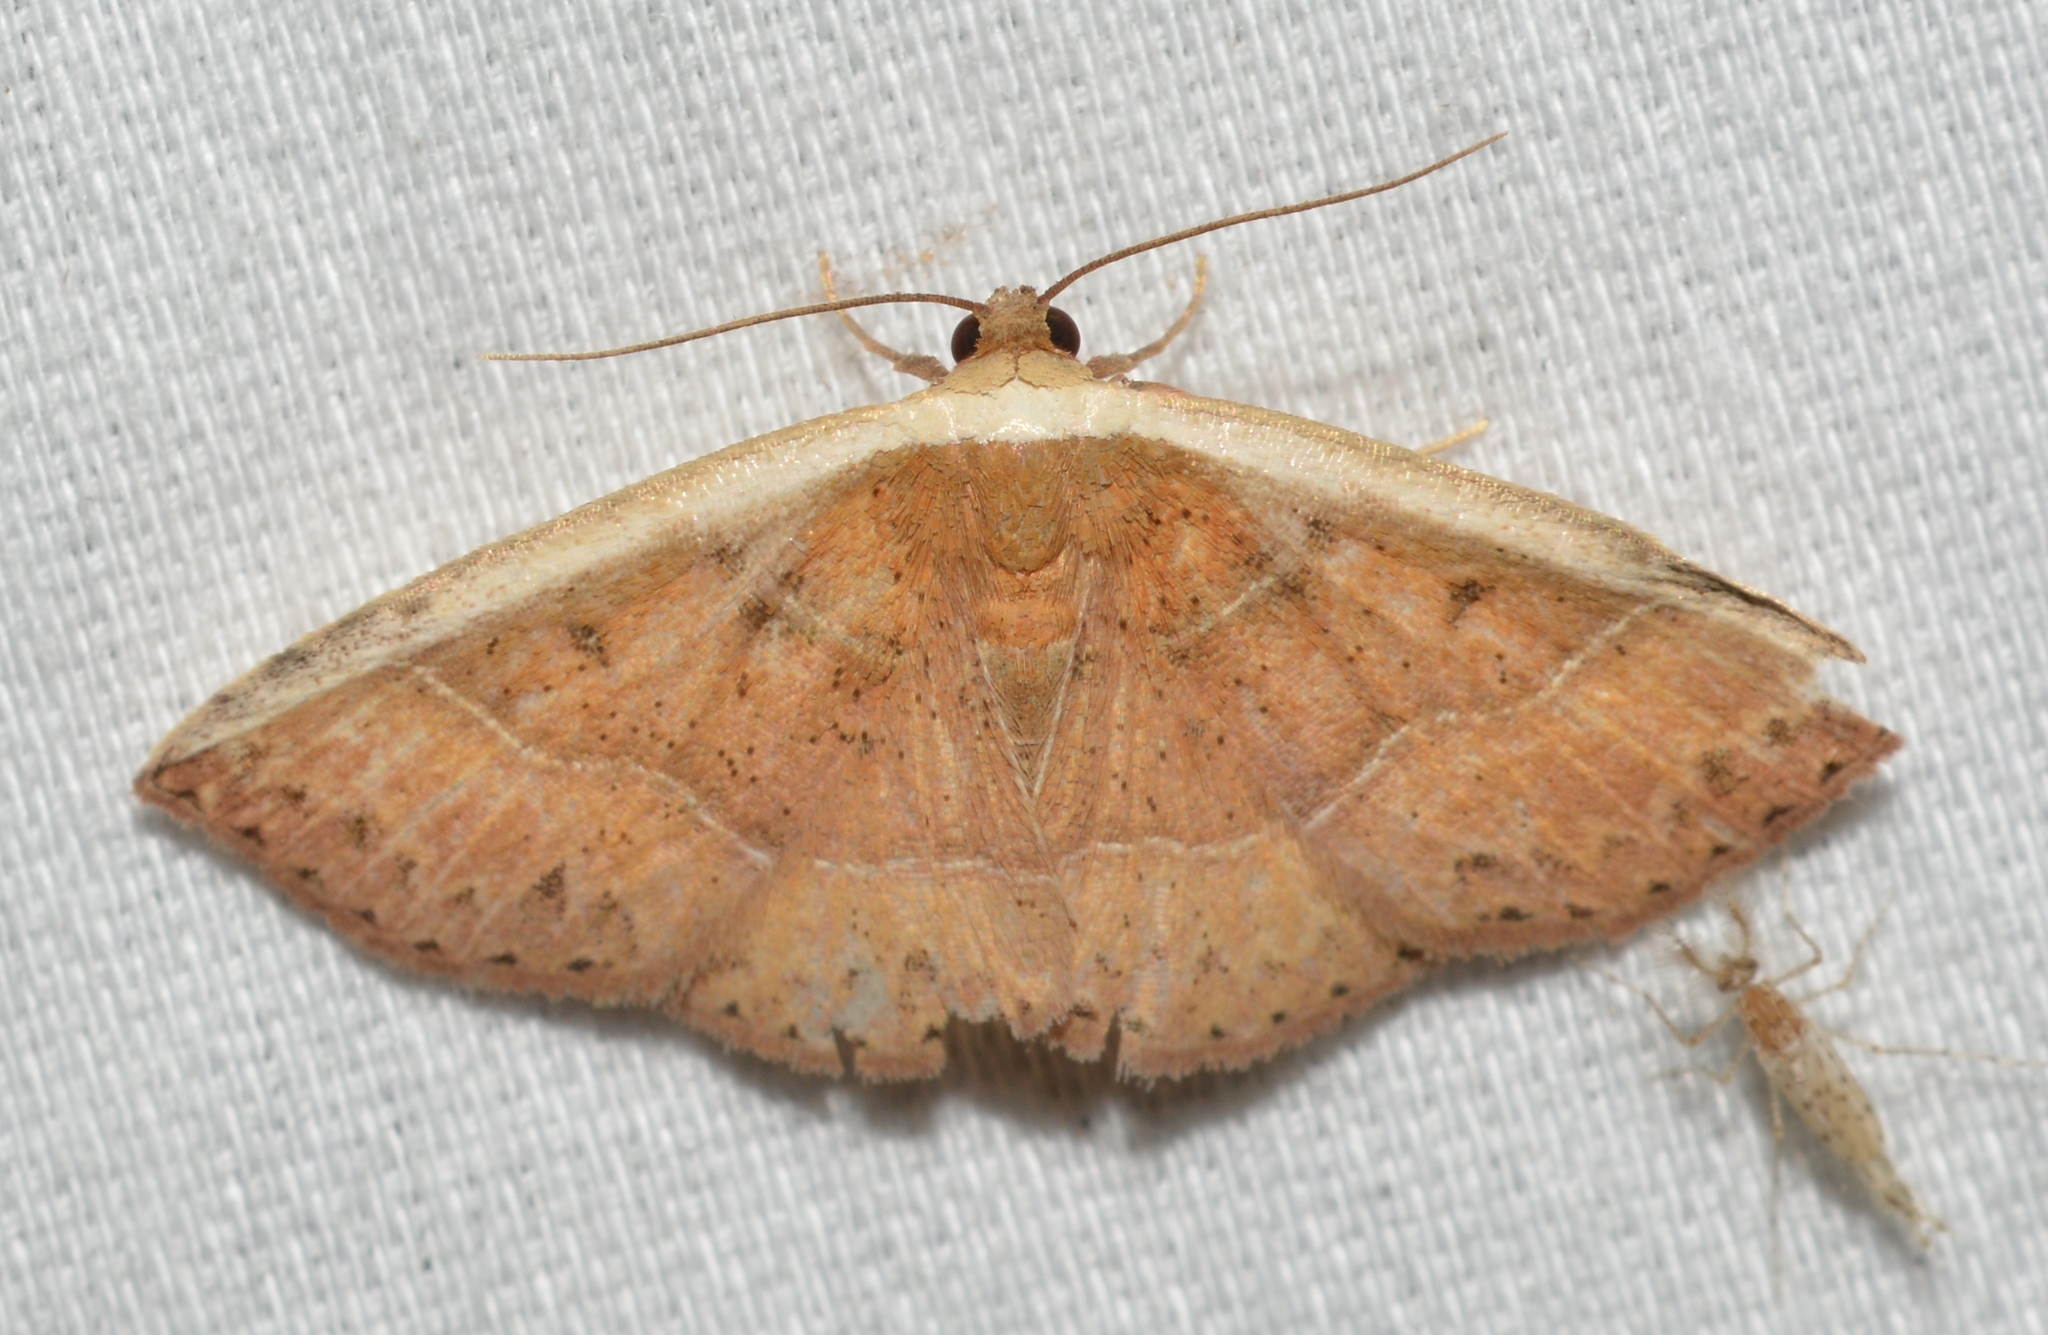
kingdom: Animalia
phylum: Arthropoda
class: Insecta
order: Lepidoptera
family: Noctuidae
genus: Ozarba
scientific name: Ozarba albocostaliata
